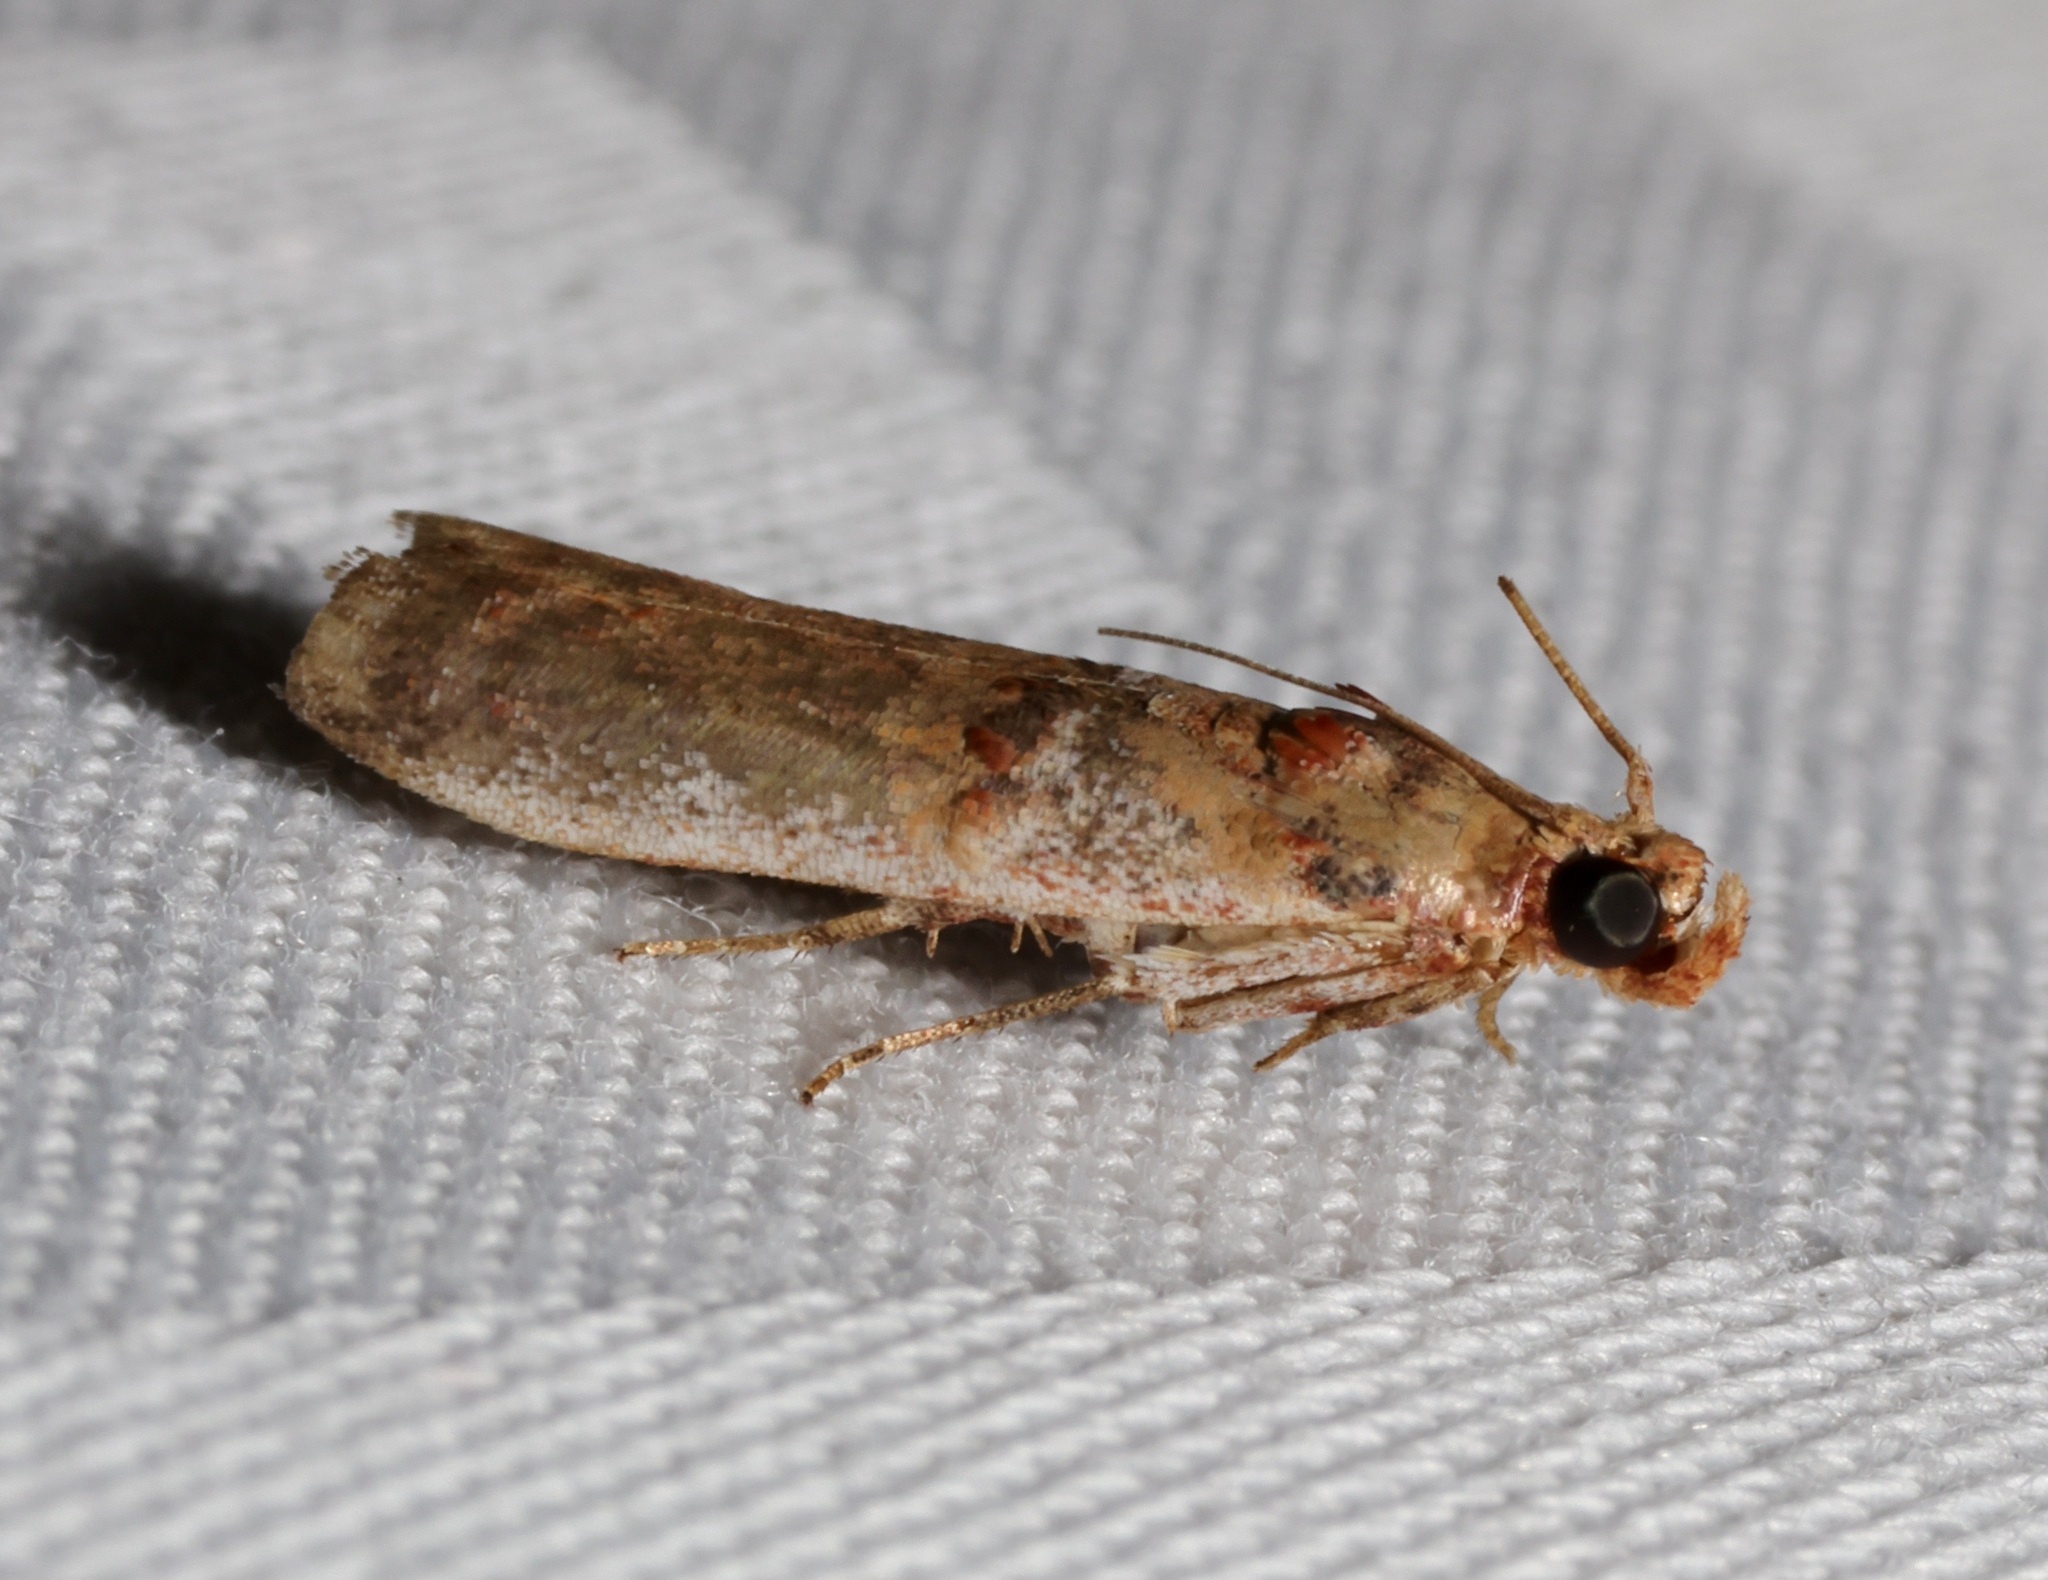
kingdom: Animalia
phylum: Arthropoda
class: Insecta
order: Lepidoptera
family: Pyralidae
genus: Hypargyria
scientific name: Hypargyria metalliferella
